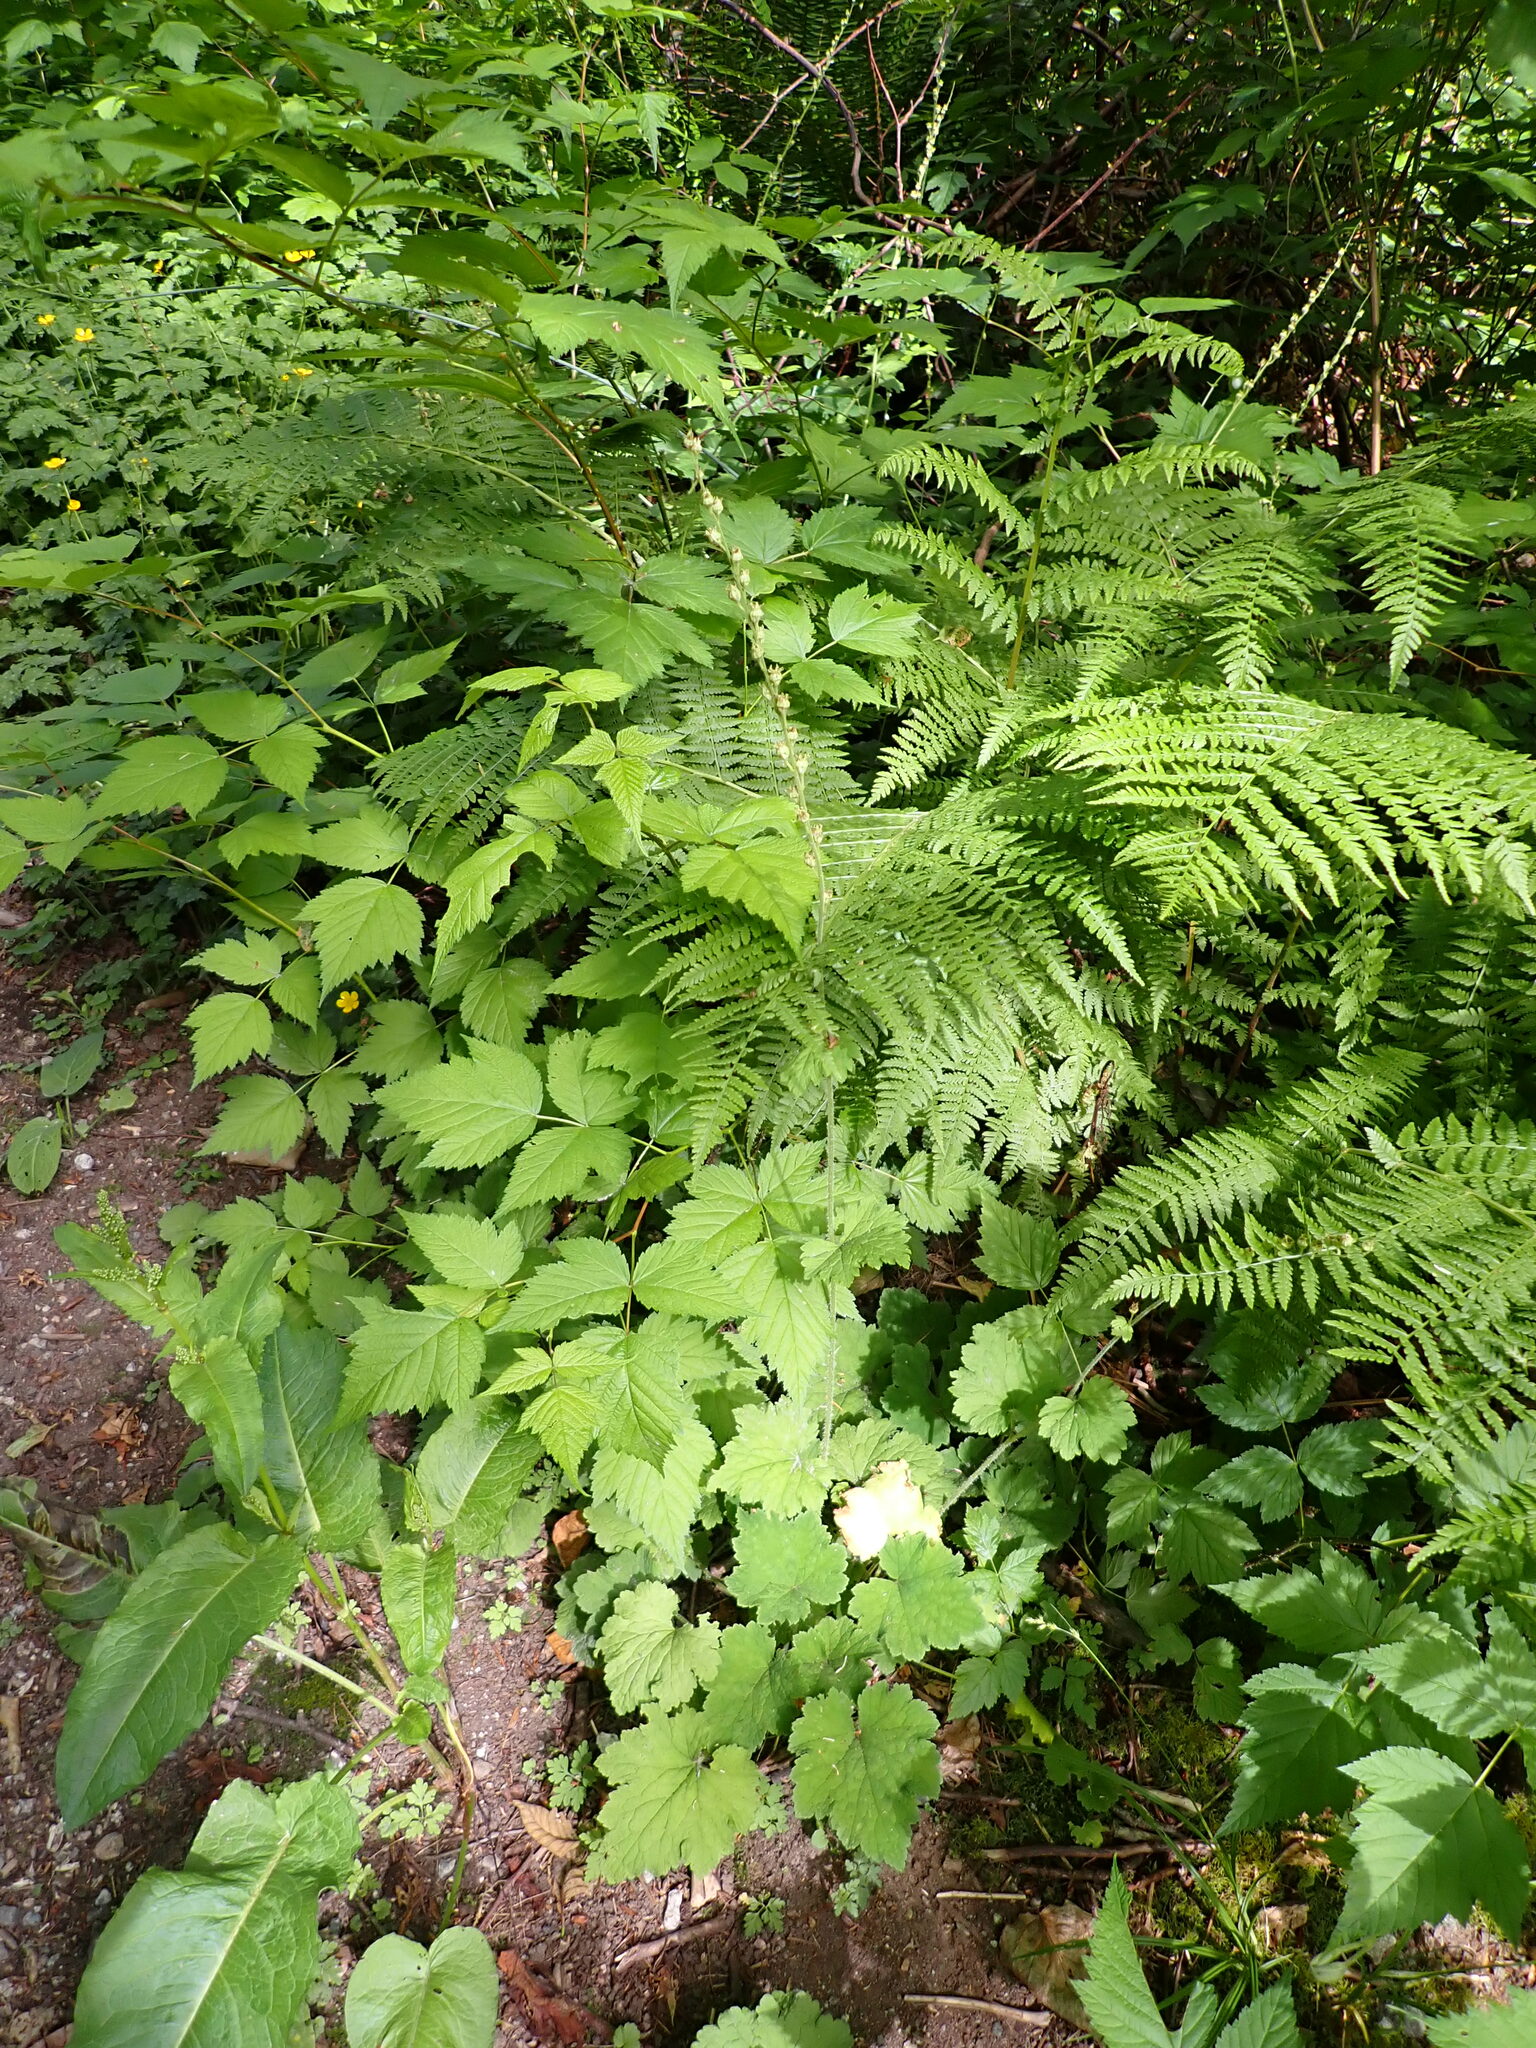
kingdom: Plantae
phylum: Tracheophyta
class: Magnoliopsida
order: Saxifragales
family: Saxifragaceae
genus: Tellima
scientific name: Tellima grandiflora
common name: Fringecups
